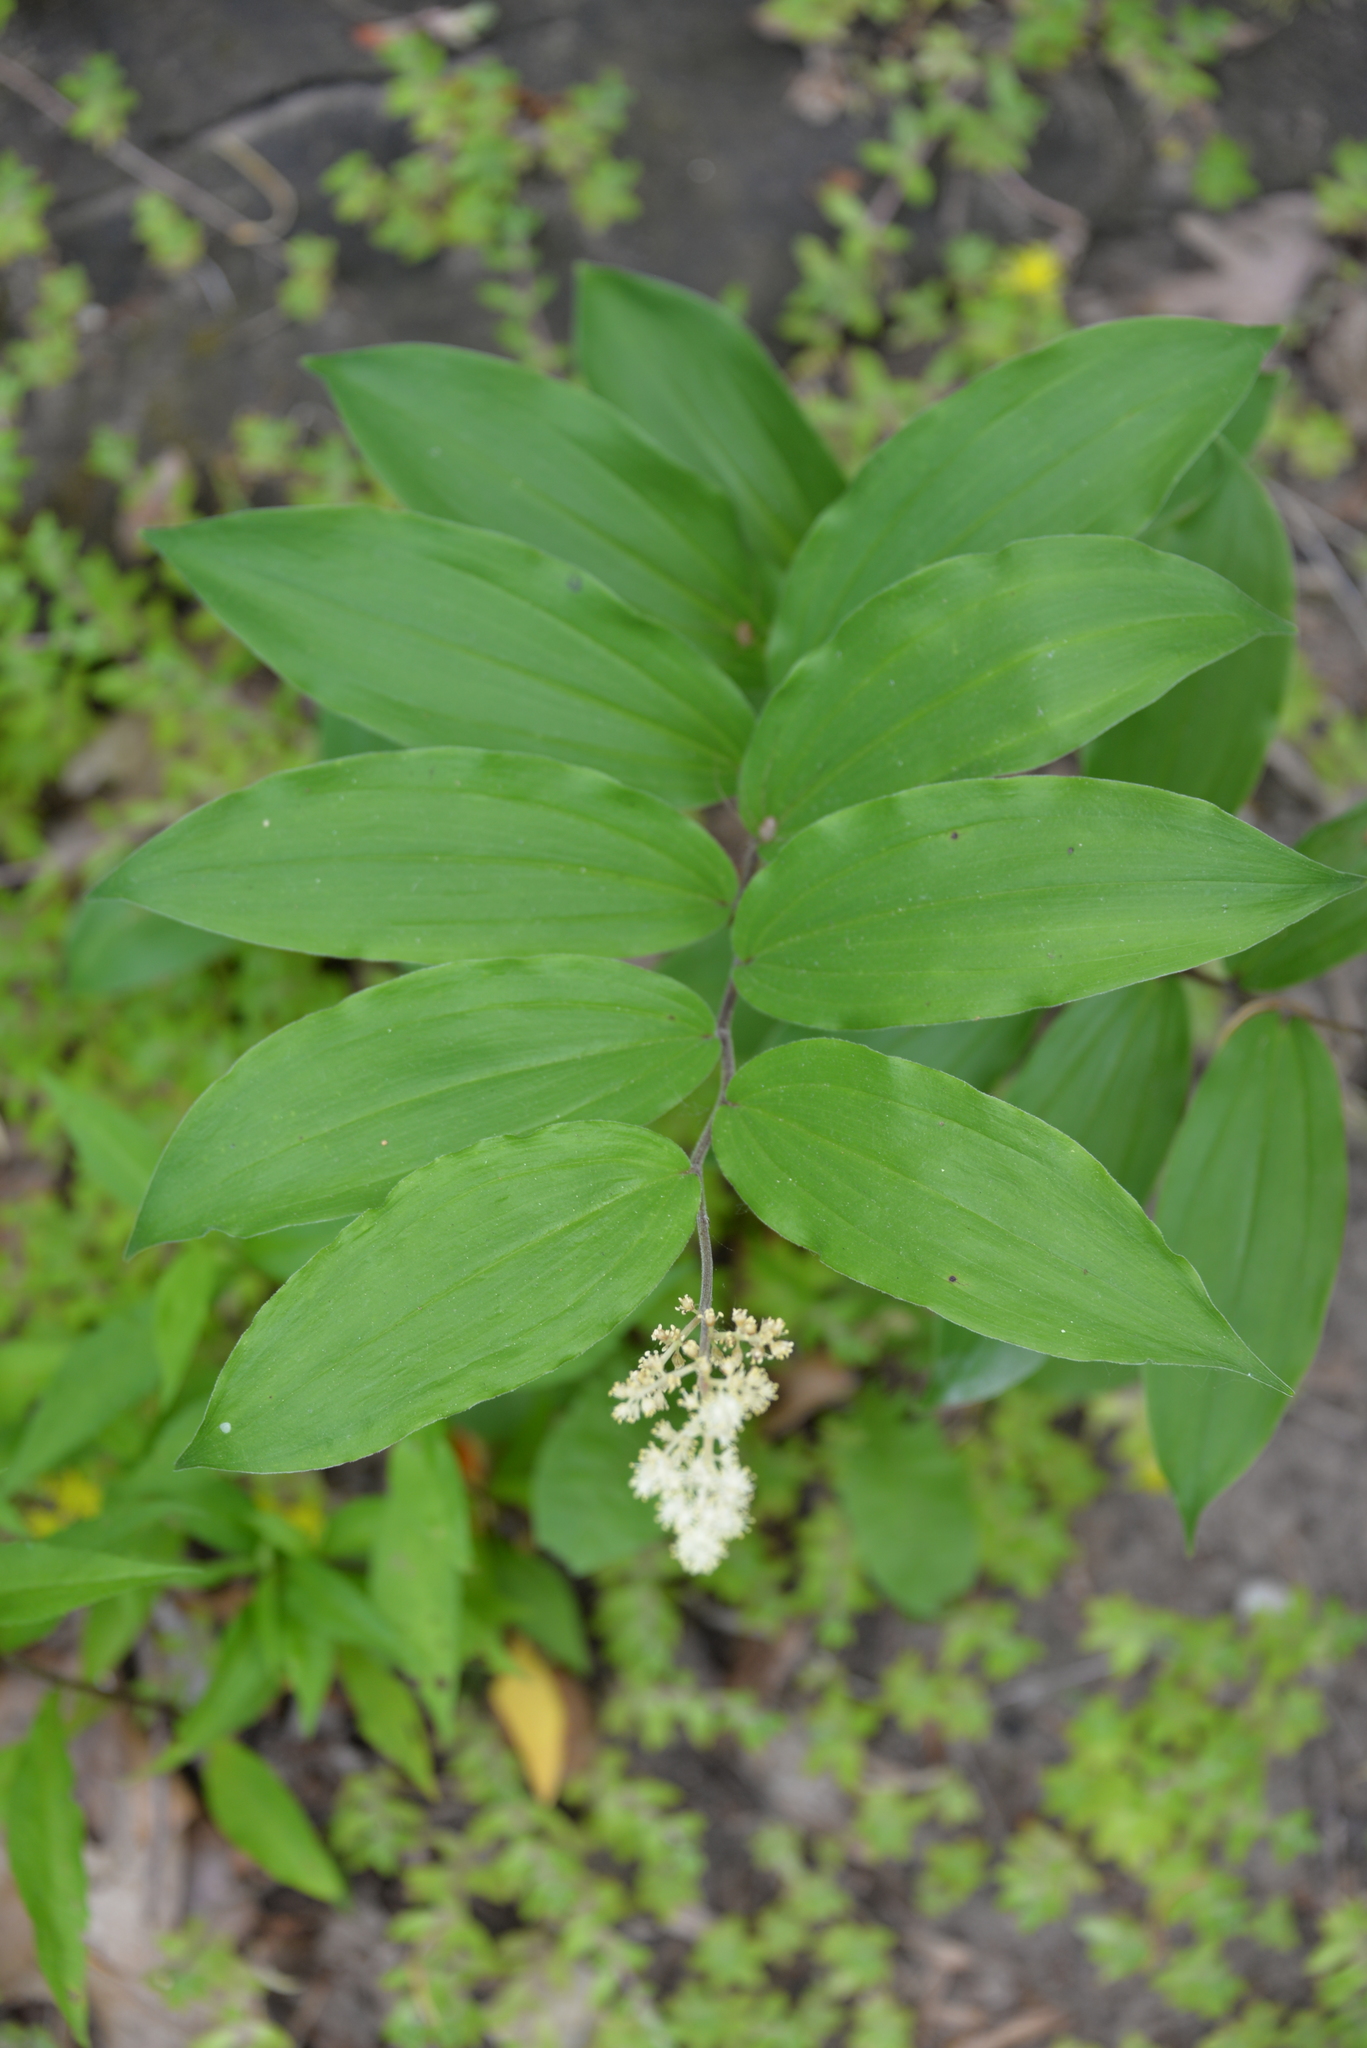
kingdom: Plantae
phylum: Tracheophyta
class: Liliopsida
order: Asparagales
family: Asparagaceae
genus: Maianthemum
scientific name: Maianthemum racemosum
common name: False spikenard
